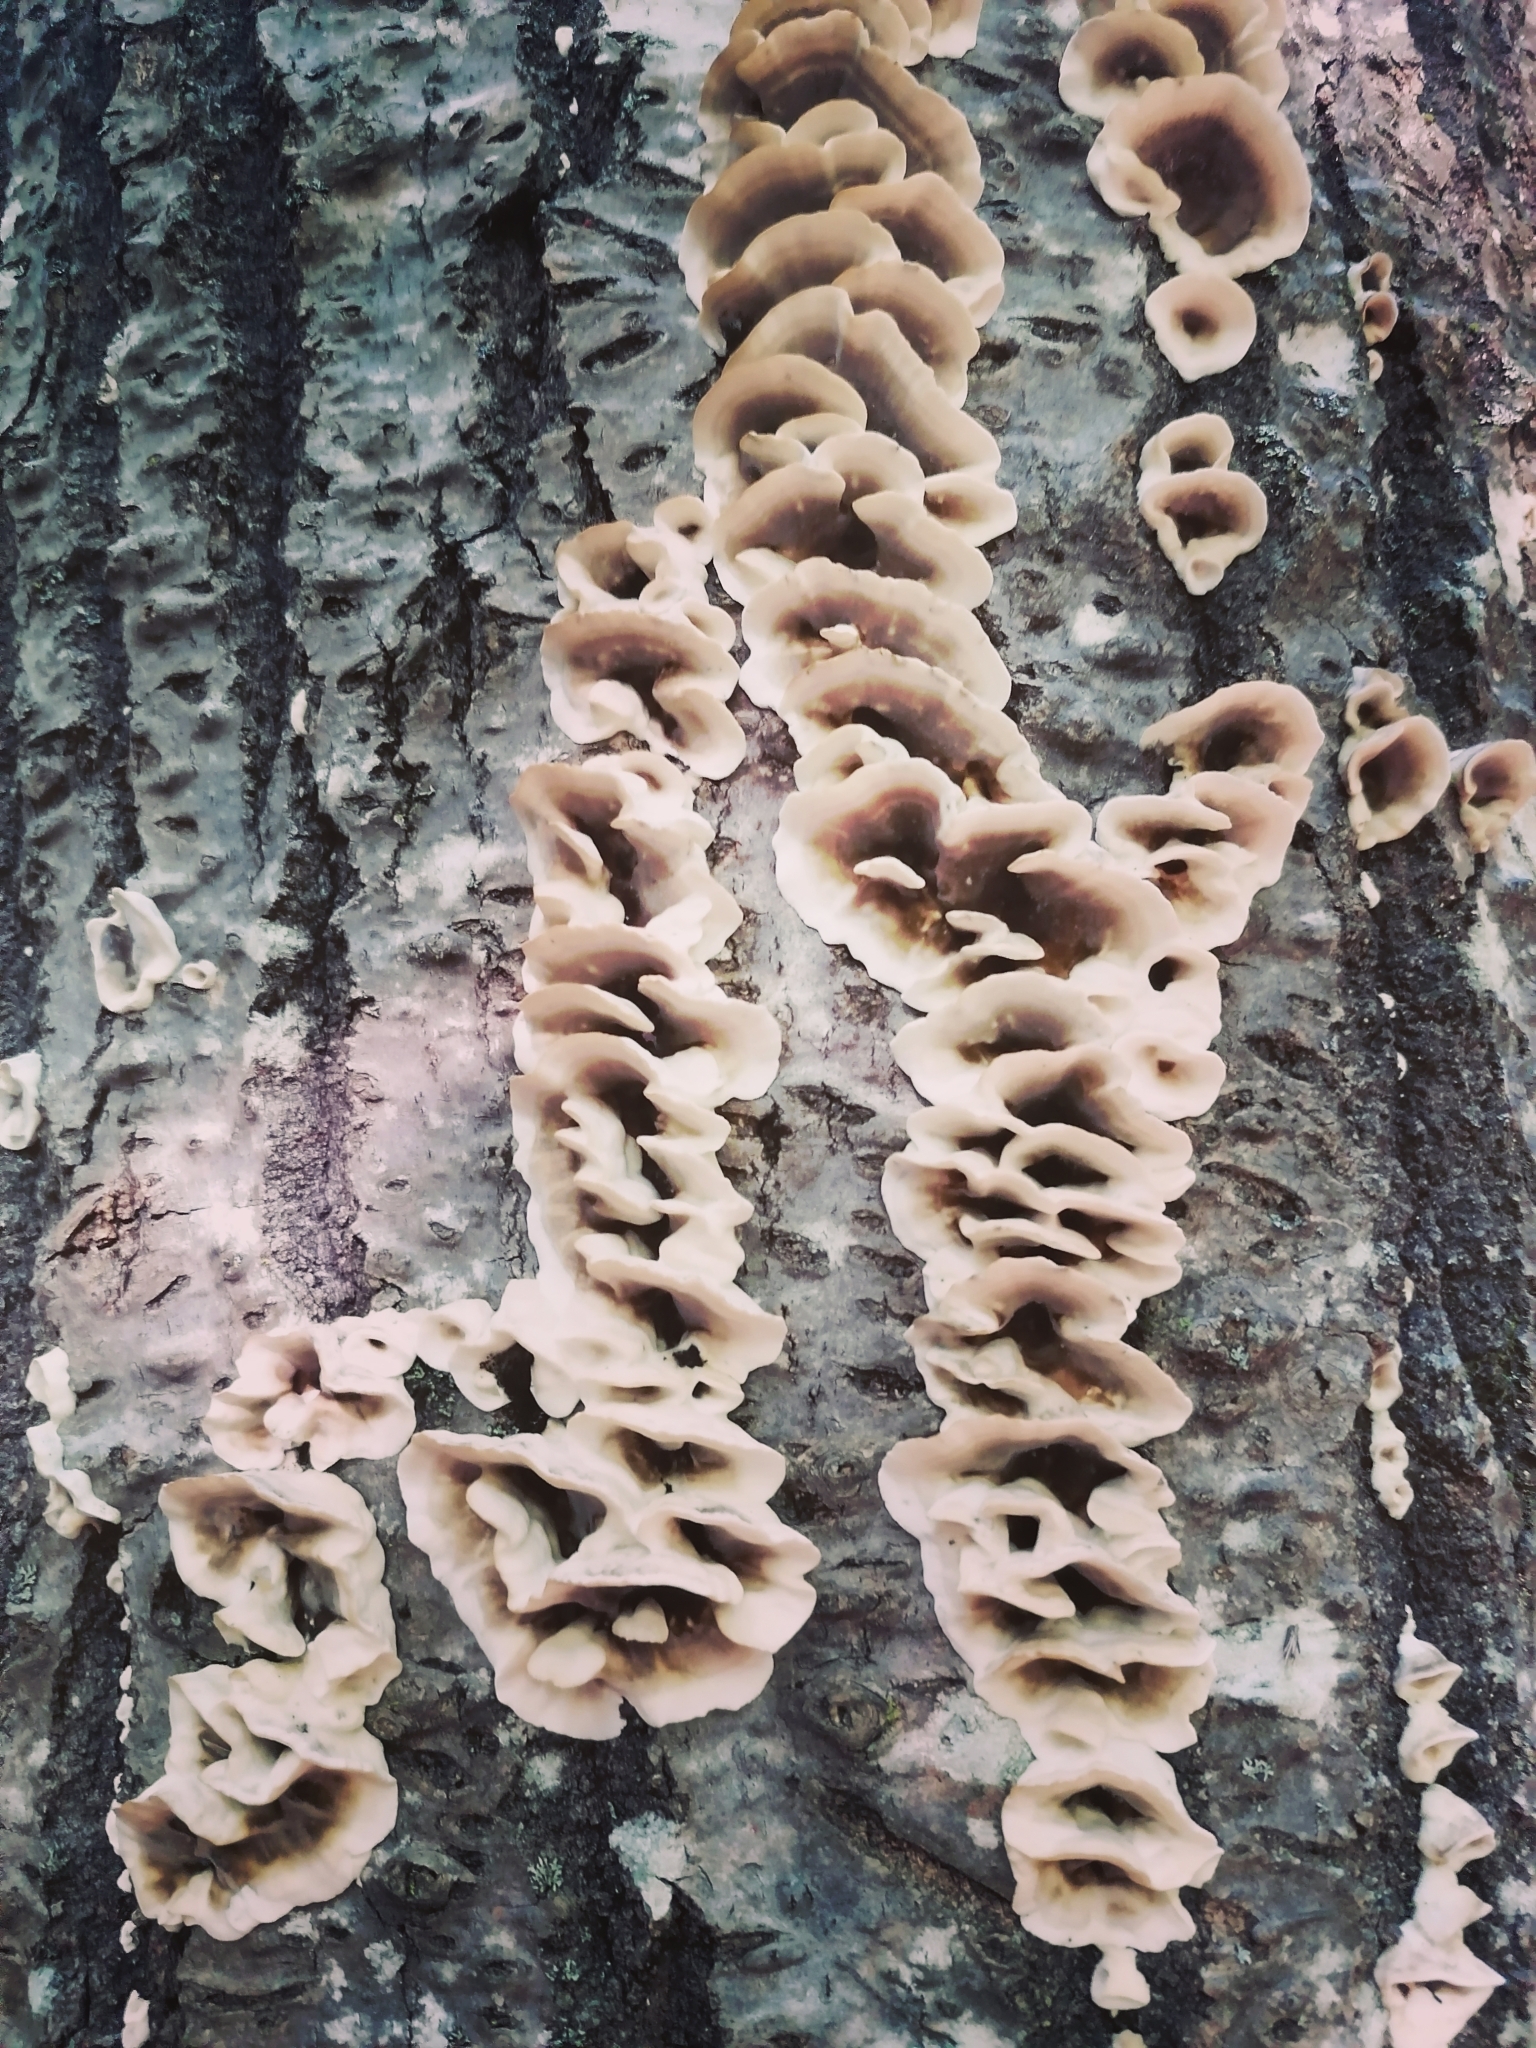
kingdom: Fungi
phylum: Basidiomycota
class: Agaricomycetes
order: Polyporales
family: Phanerochaetaceae
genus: Bjerkandera
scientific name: Bjerkandera adusta
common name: Smoky bracket
